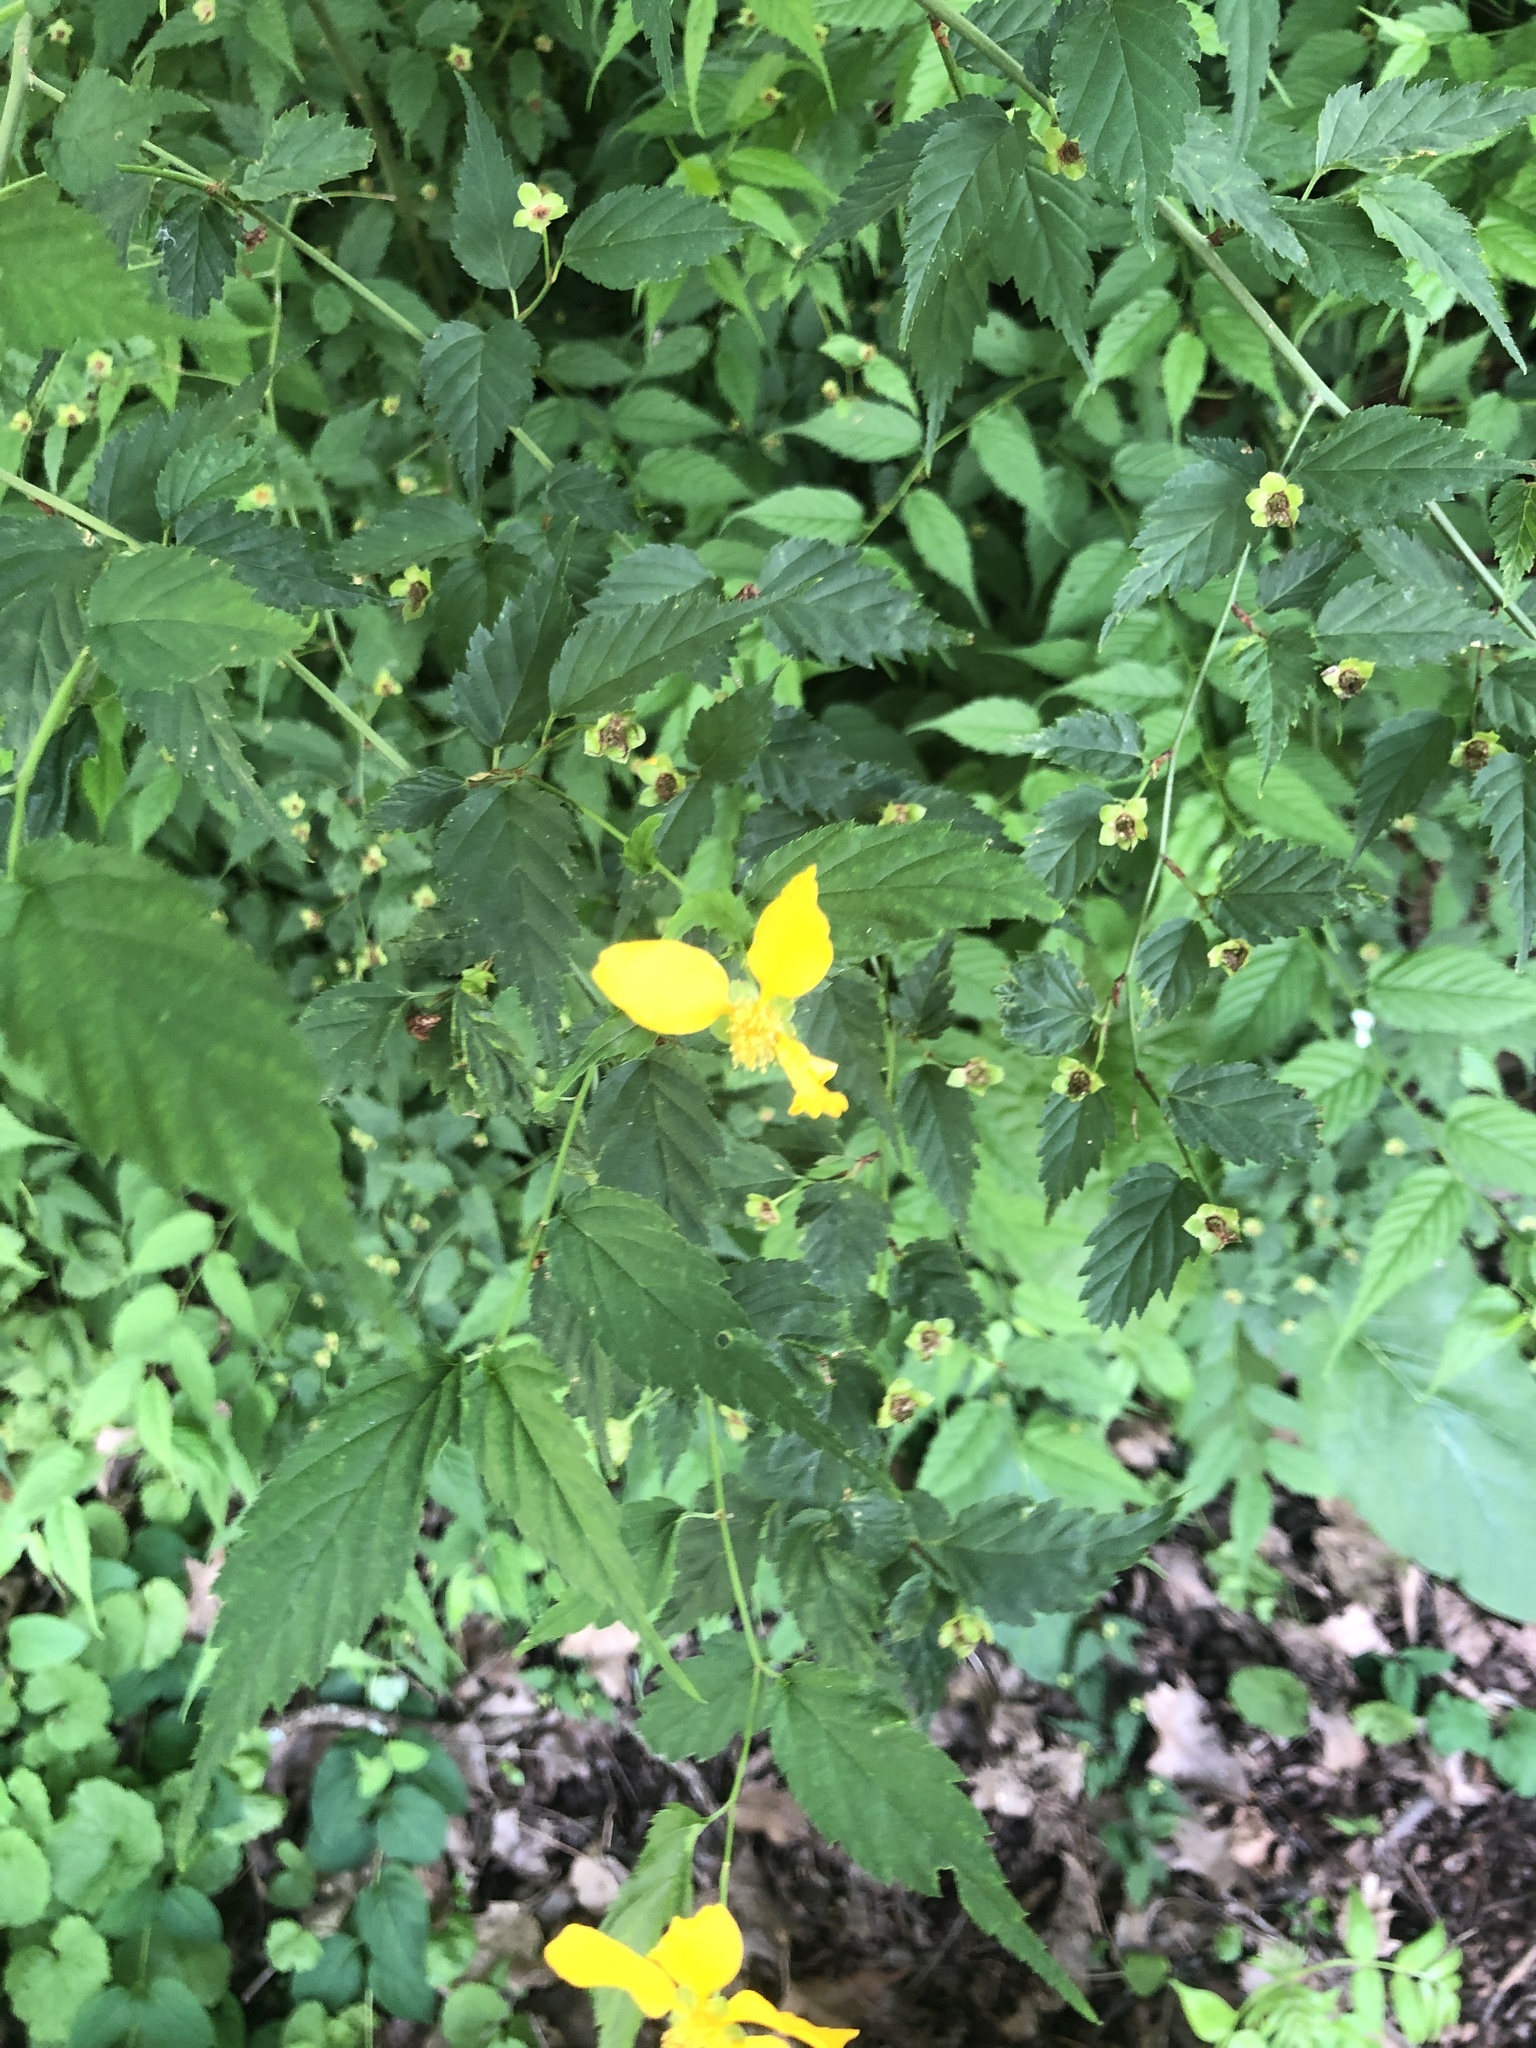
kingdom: Plantae
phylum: Tracheophyta
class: Magnoliopsida
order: Rosales
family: Rosaceae
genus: Kerria
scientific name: Kerria japonica
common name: Japanese kerria
